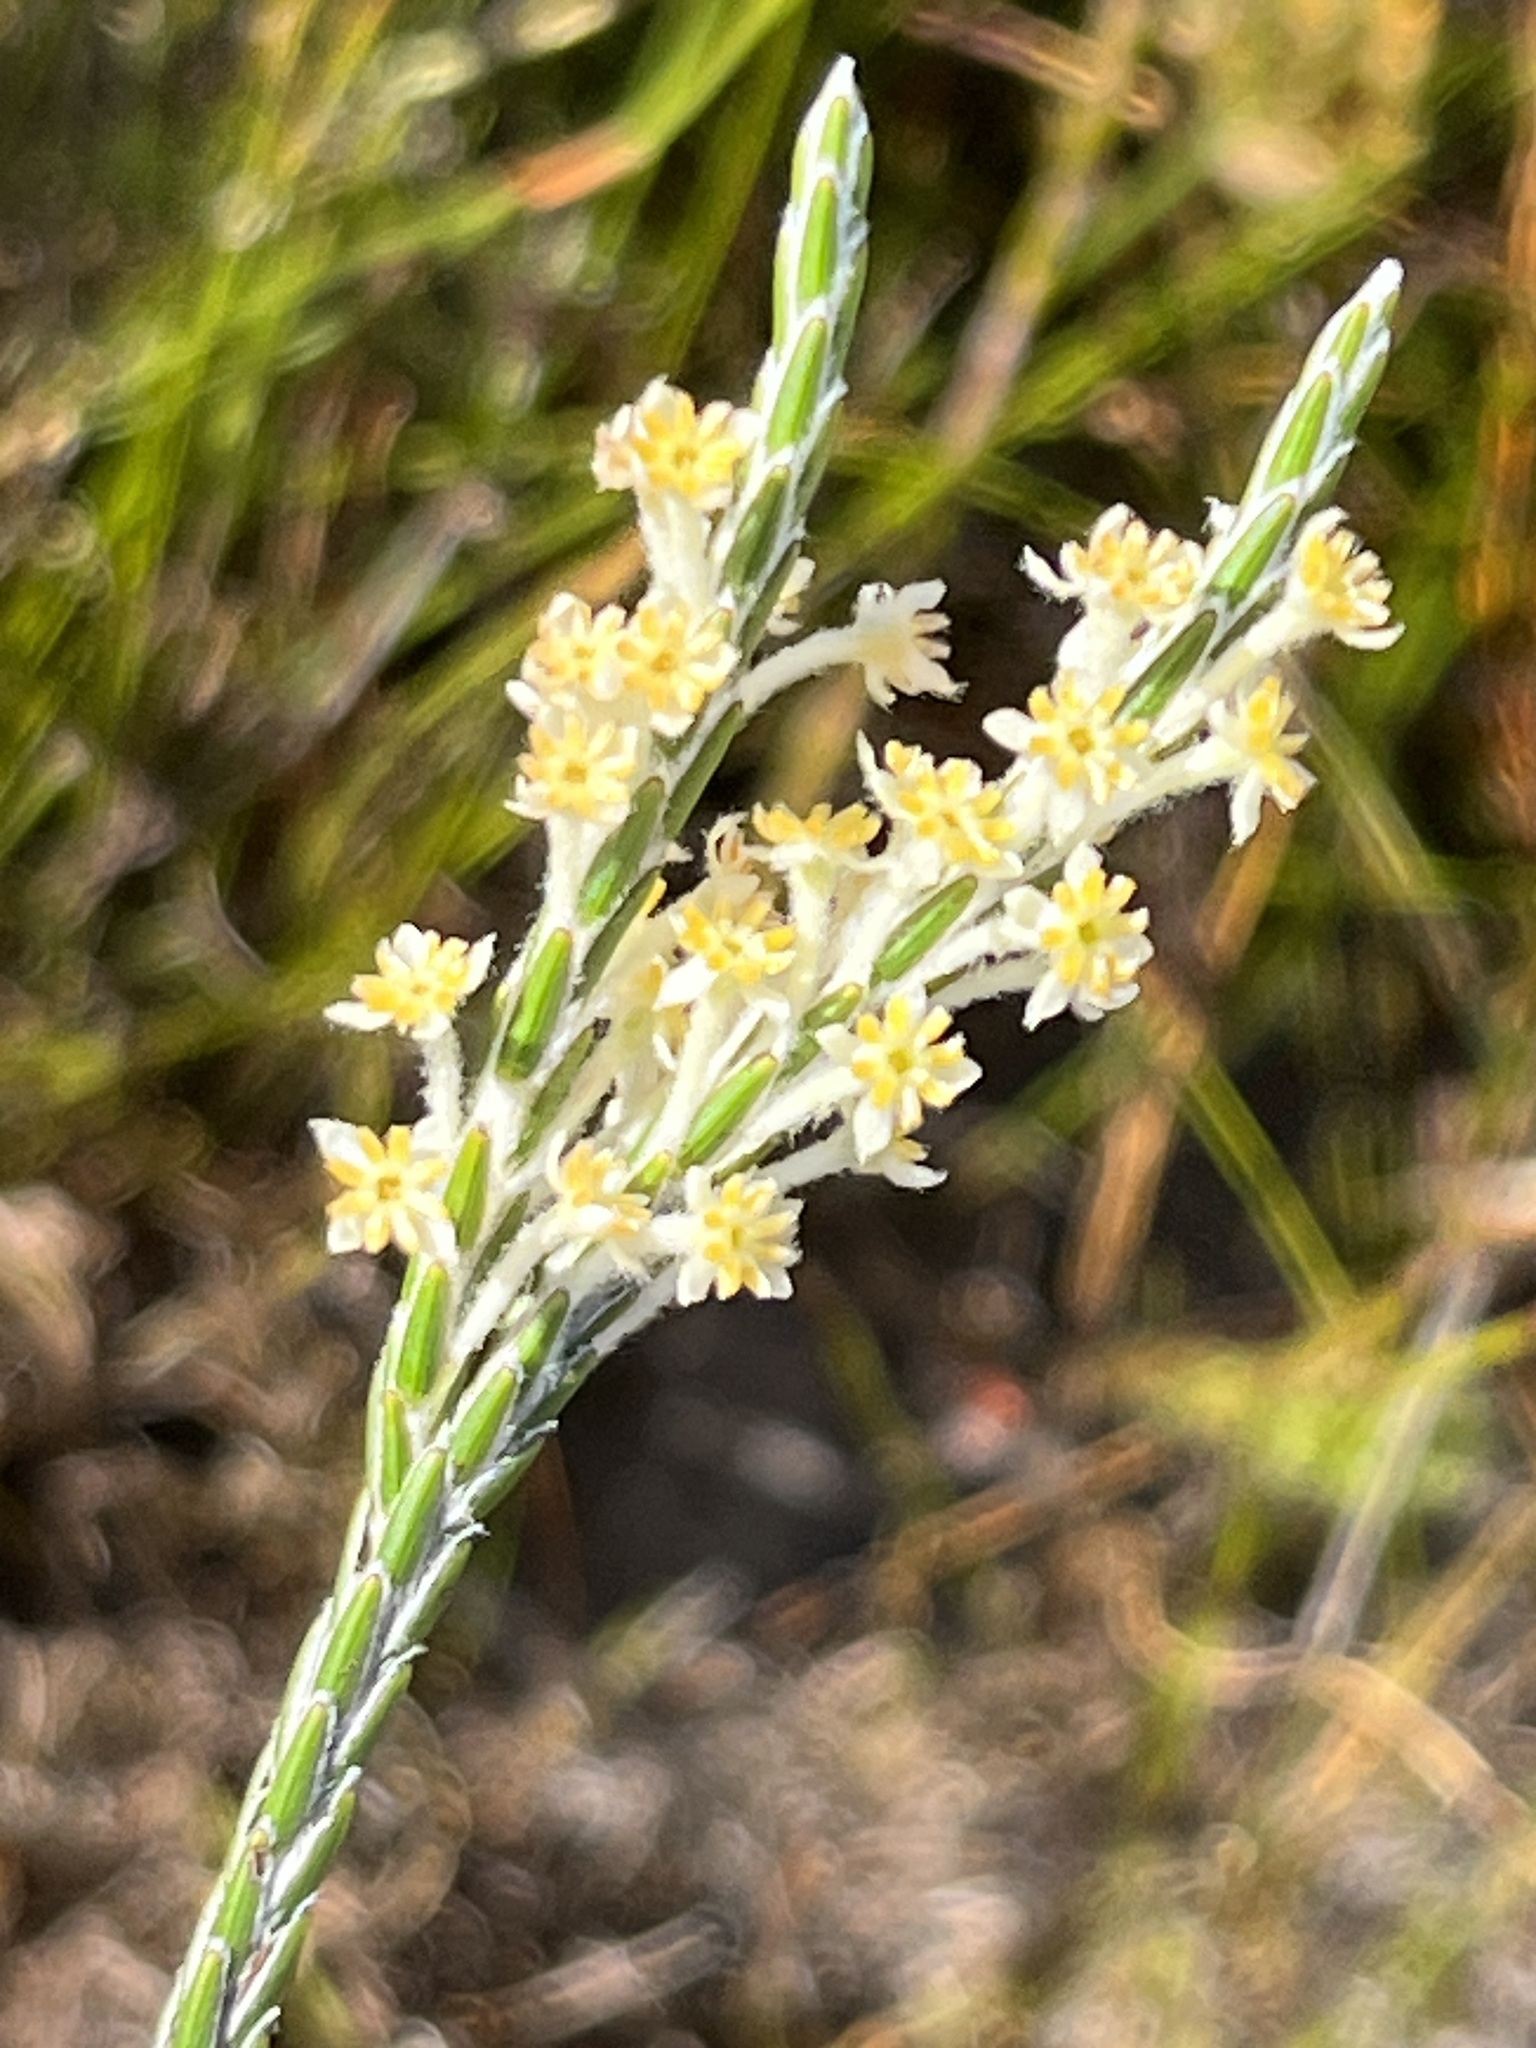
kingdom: Plantae
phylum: Tracheophyta
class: Magnoliopsida
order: Malvales
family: Thymelaeaceae
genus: Struthiola
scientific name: Struthiola ciliata
